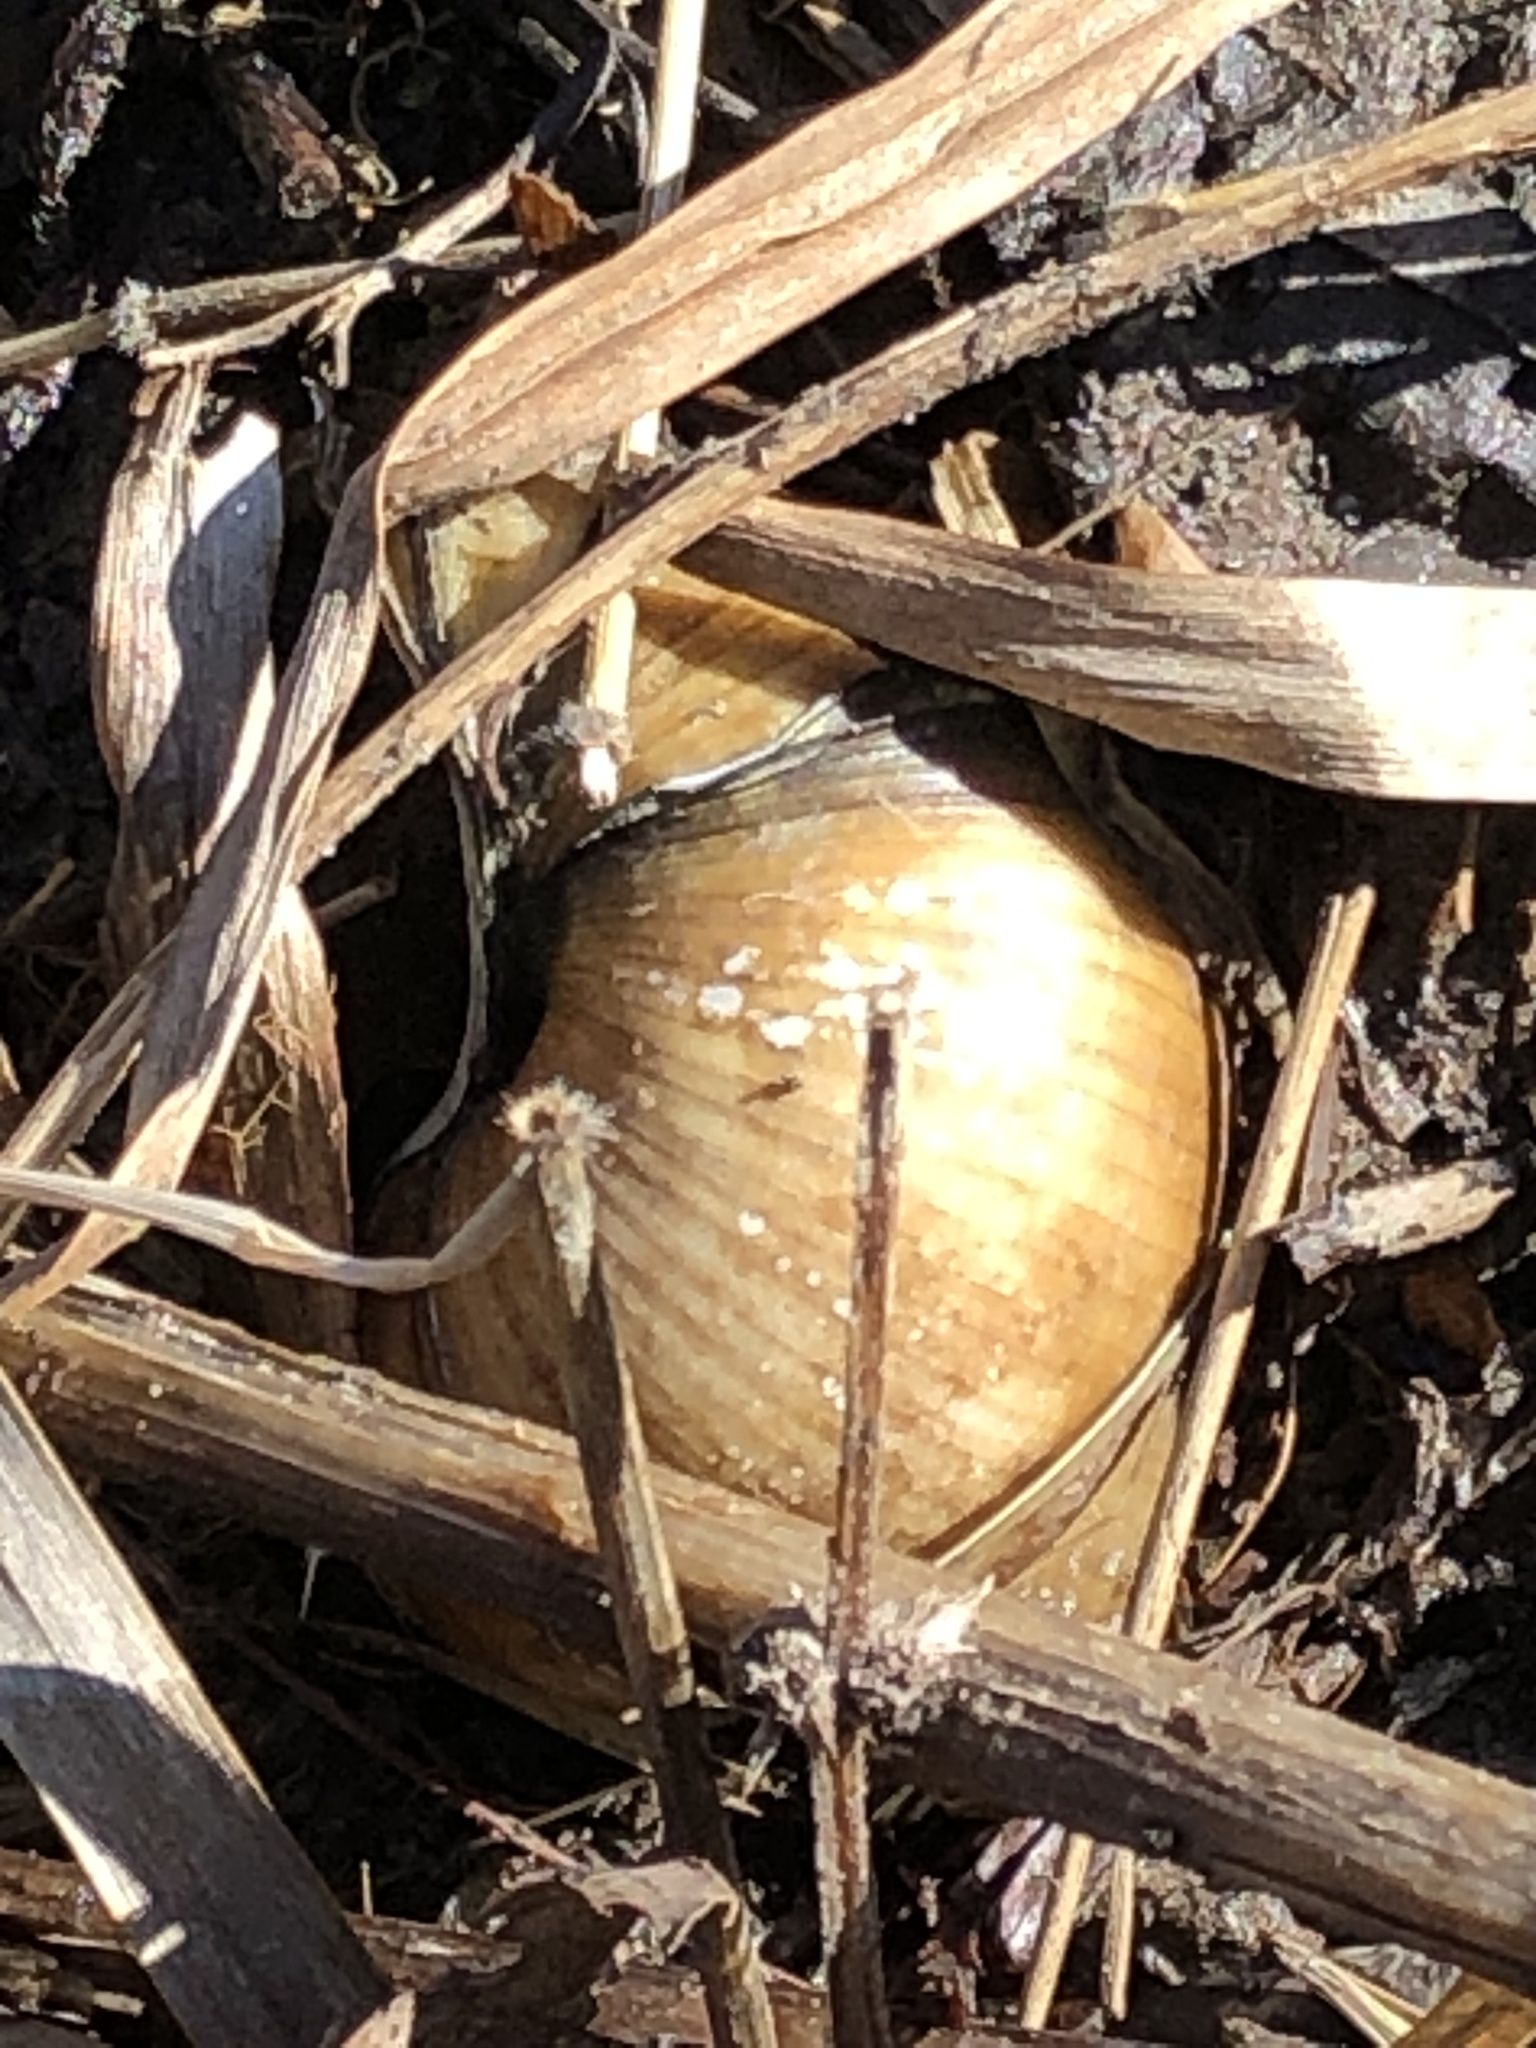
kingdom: Animalia
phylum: Mollusca
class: Gastropoda
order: Architaenioglossa
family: Viviparidae
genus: Cipangopaludina
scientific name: Cipangopaludina chinensis
